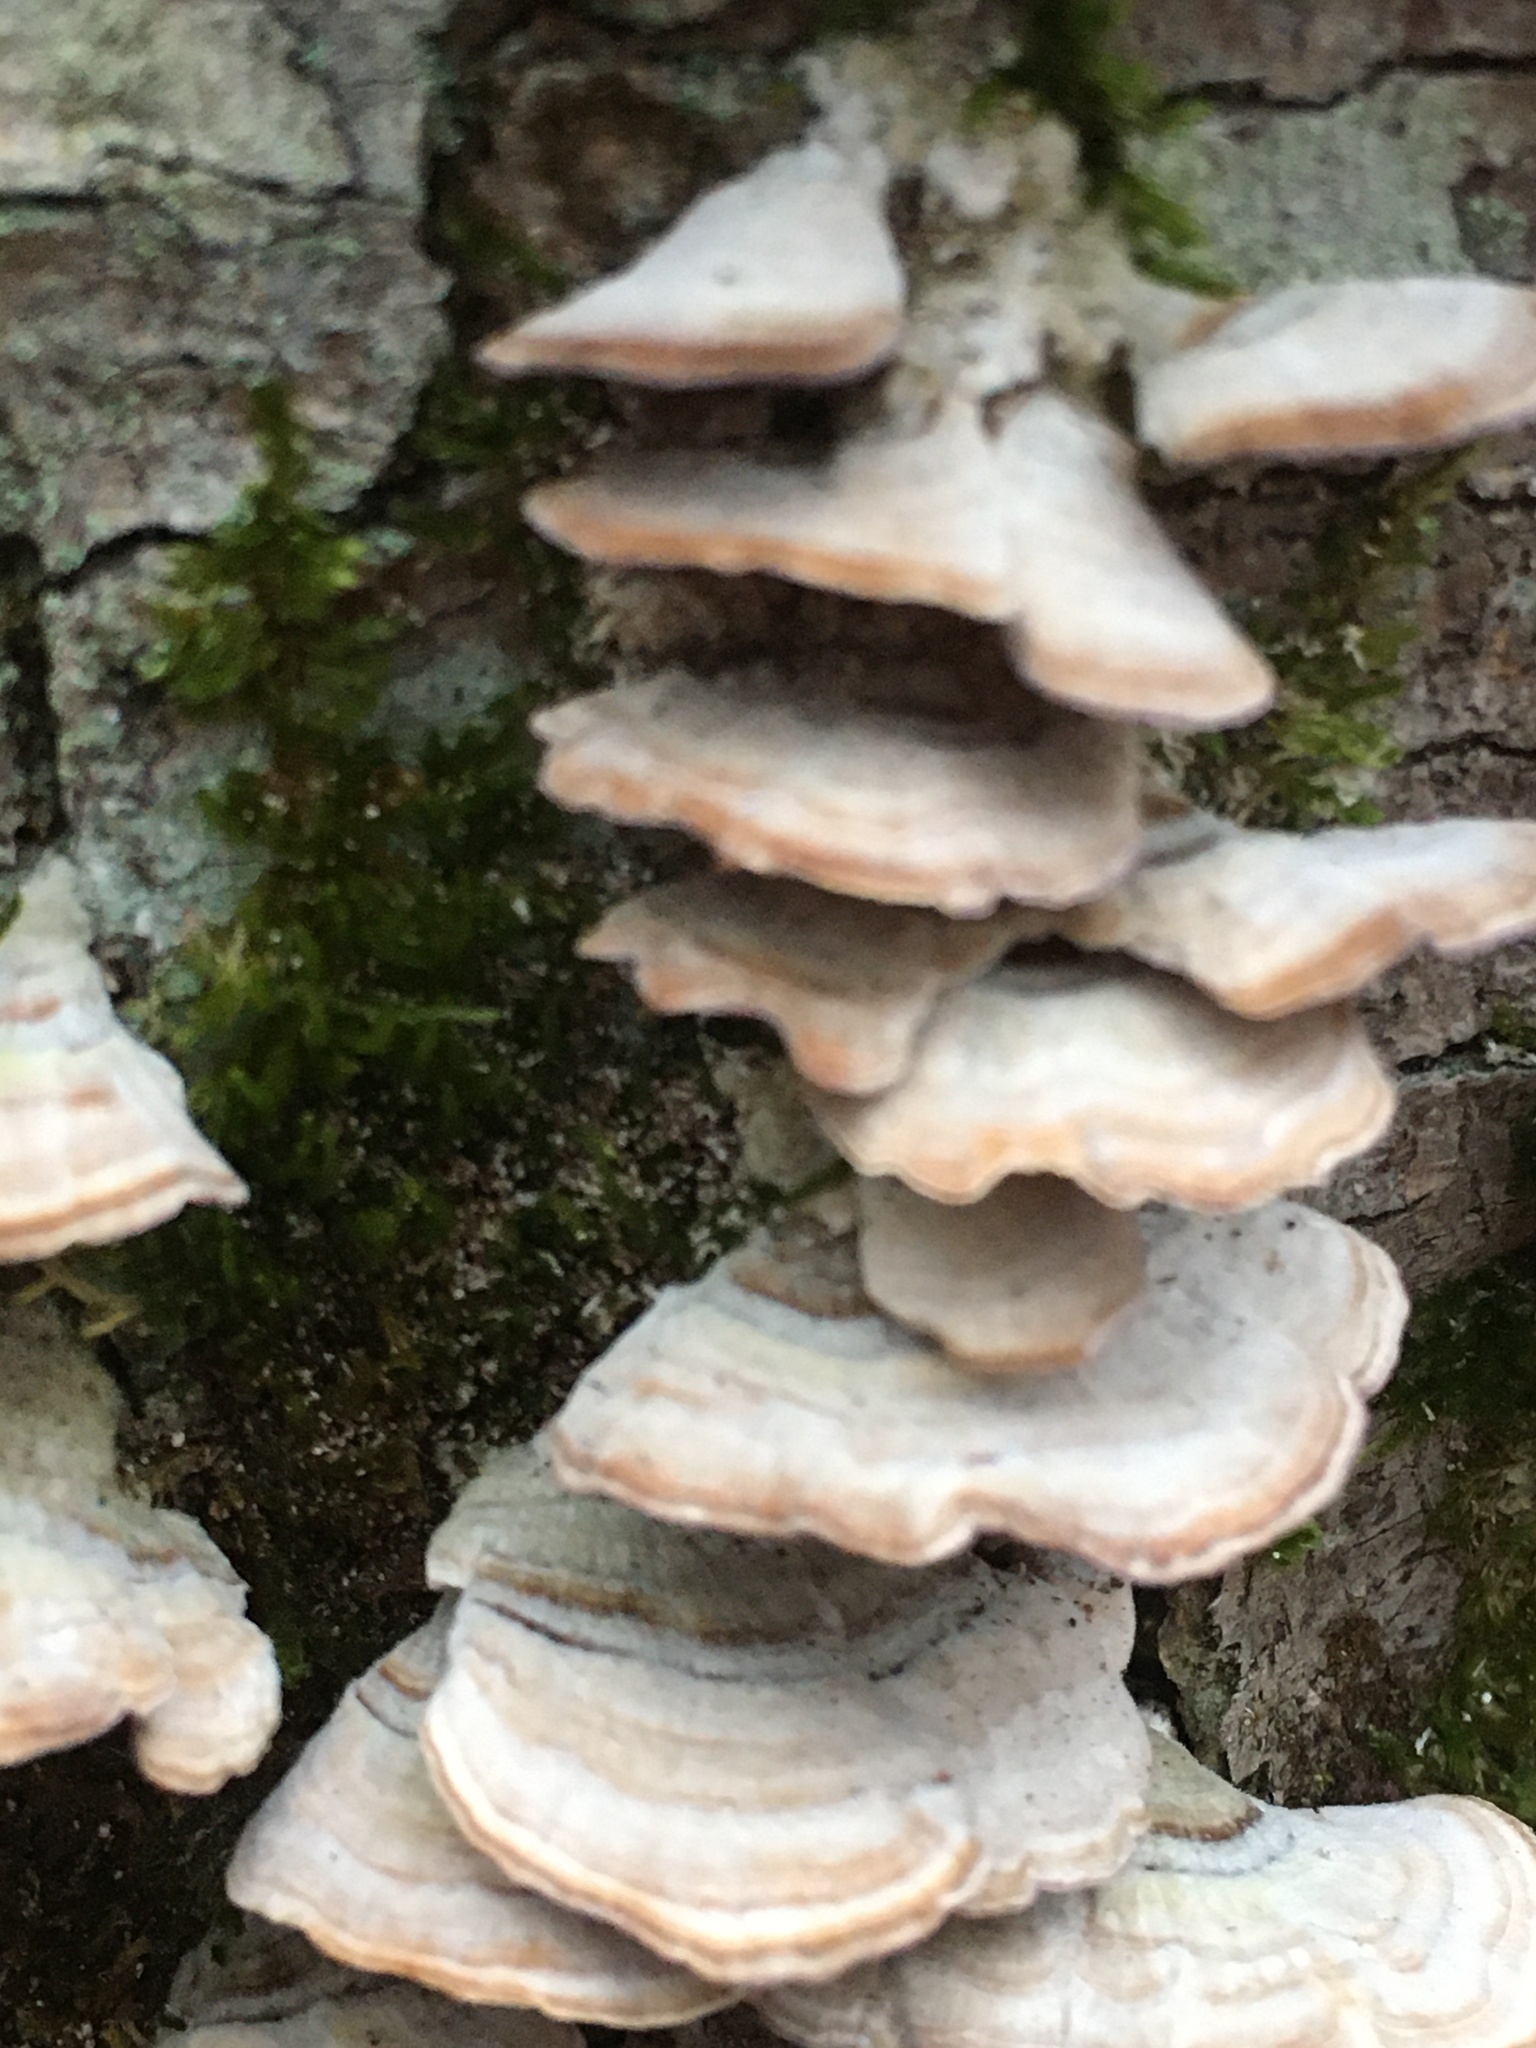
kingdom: Fungi
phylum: Basidiomycota
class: Agaricomycetes
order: Hymenochaetales
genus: Trichaptum
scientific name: Trichaptum biforme
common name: Violet-toothed polypore
